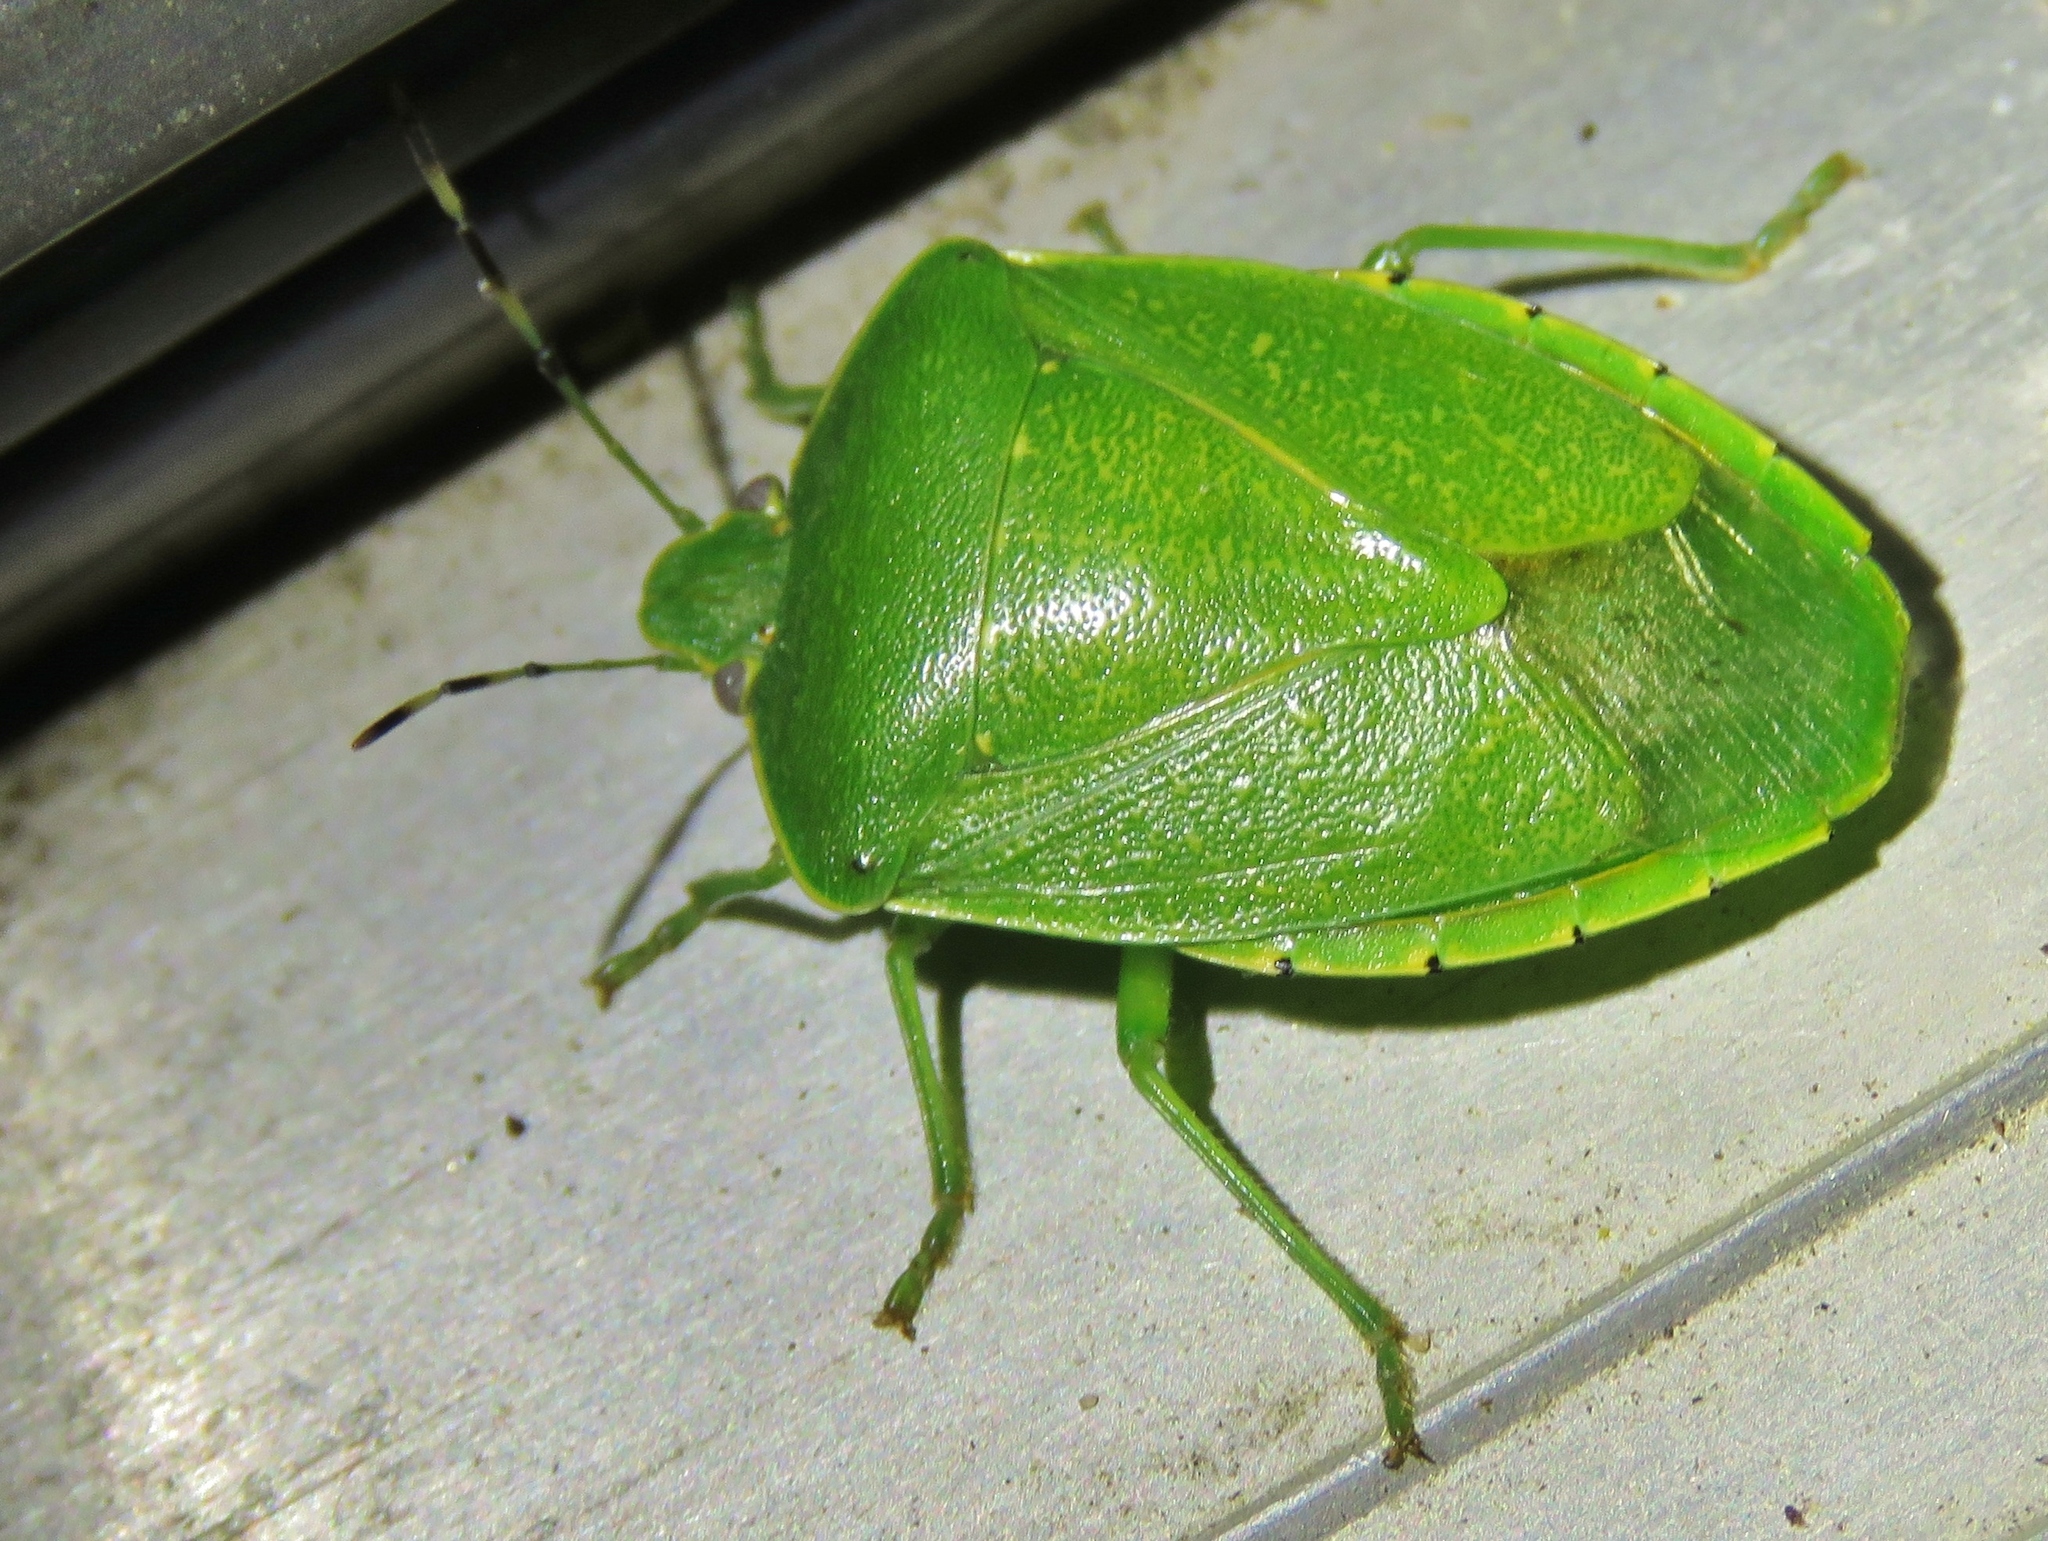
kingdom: Animalia
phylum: Arthropoda
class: Insecta
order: Hemiptera
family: Pentatomidae
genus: Chinavia
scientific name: Chinavia hilaris
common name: Green stink bug
